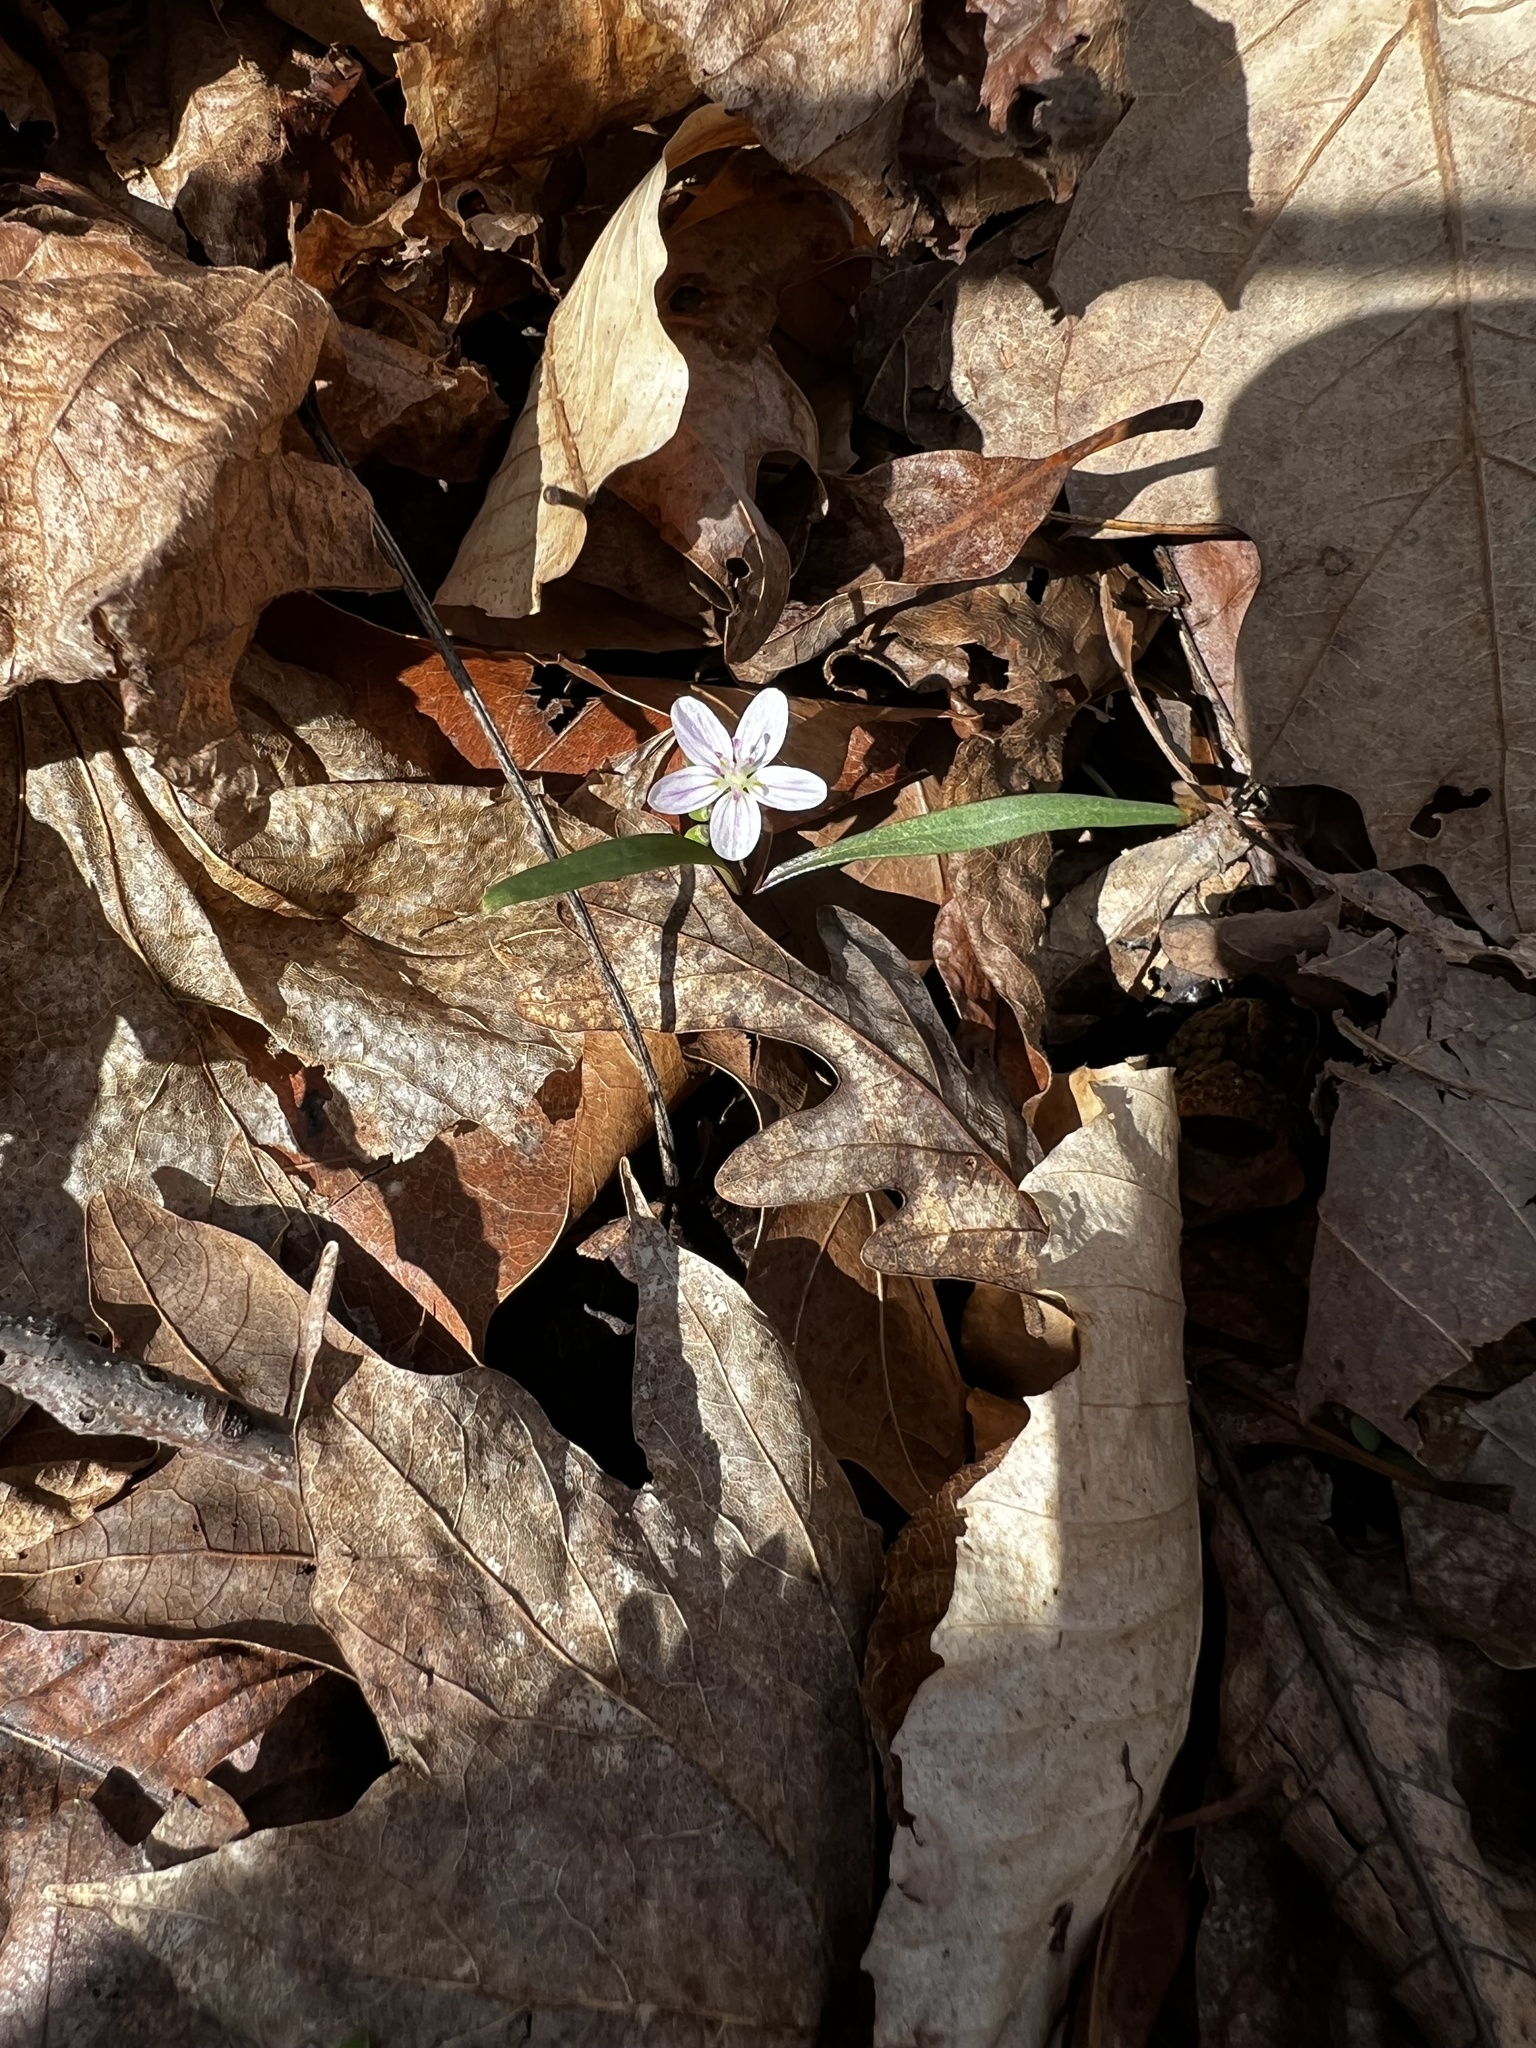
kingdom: Plantae
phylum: Tracheophyta
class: Magnoliopsida
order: Caryophyllales
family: Montiaceae
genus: Claytonia
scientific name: Claytonia virginica
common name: Virginia springbeauty
